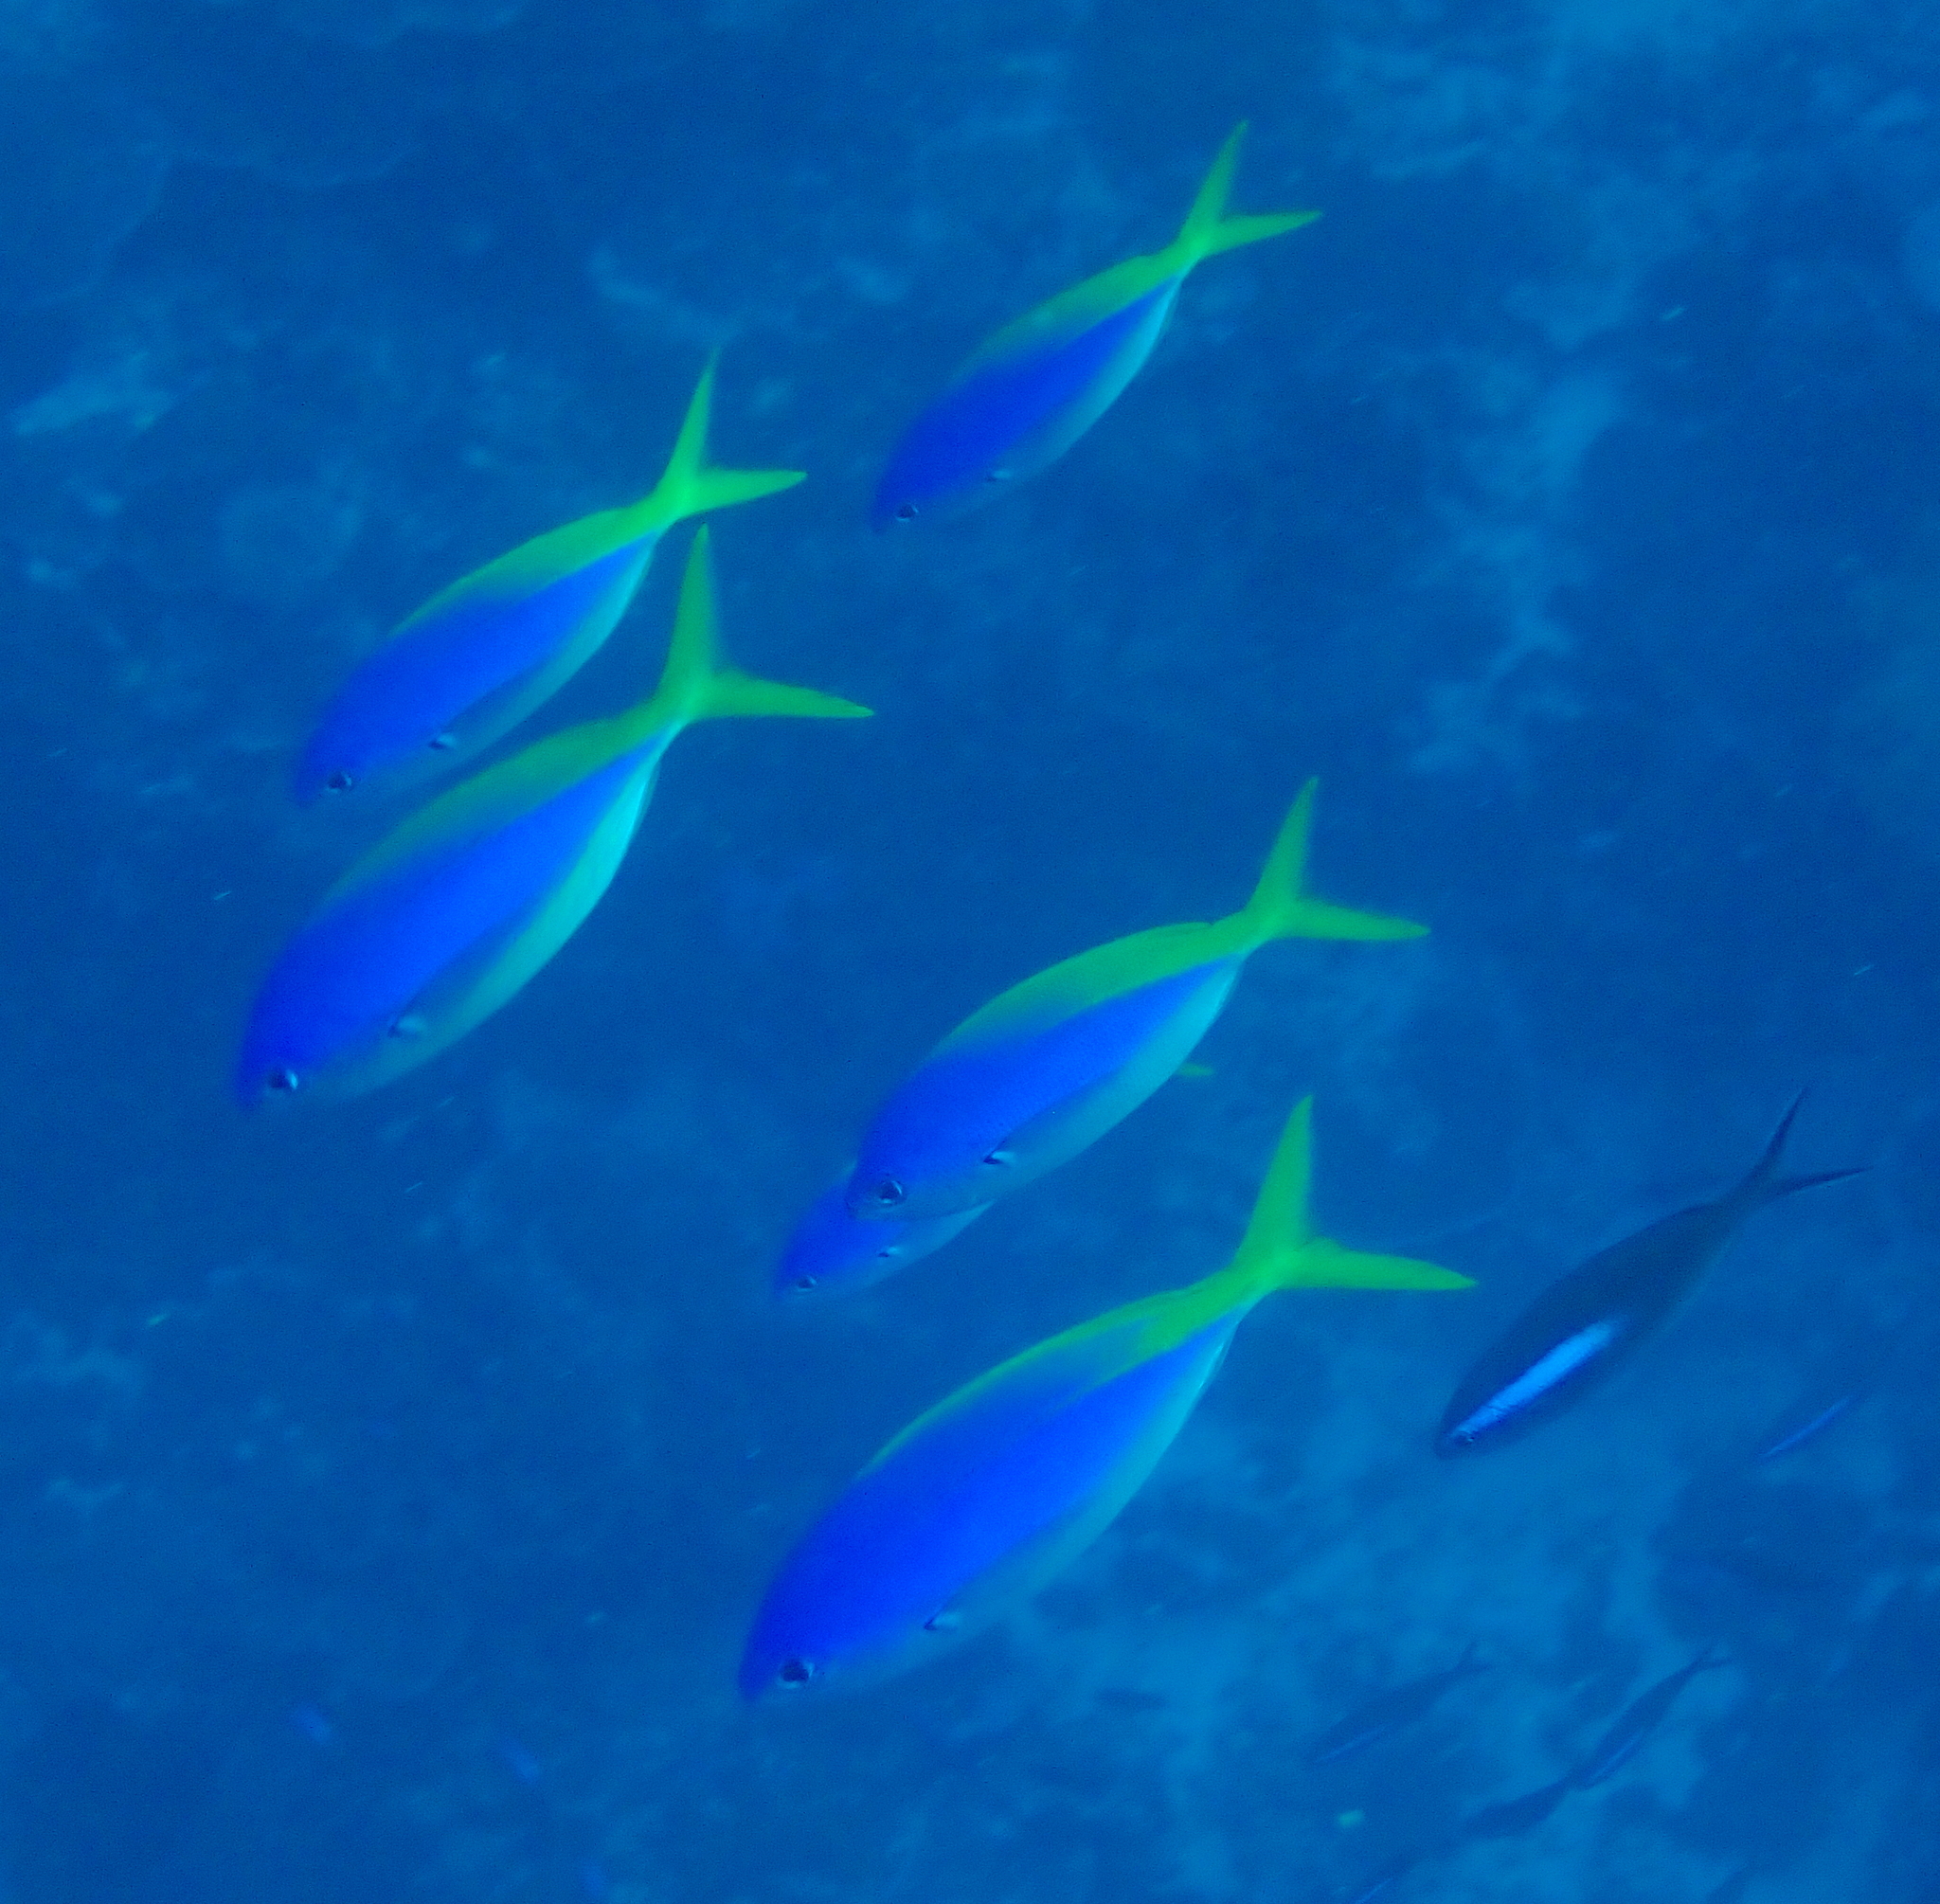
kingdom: Animalia
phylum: Chordata
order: Perciformes
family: Caesionidae
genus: Caesio
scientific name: Caesio teres
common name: Yellow and blueback fusilier
